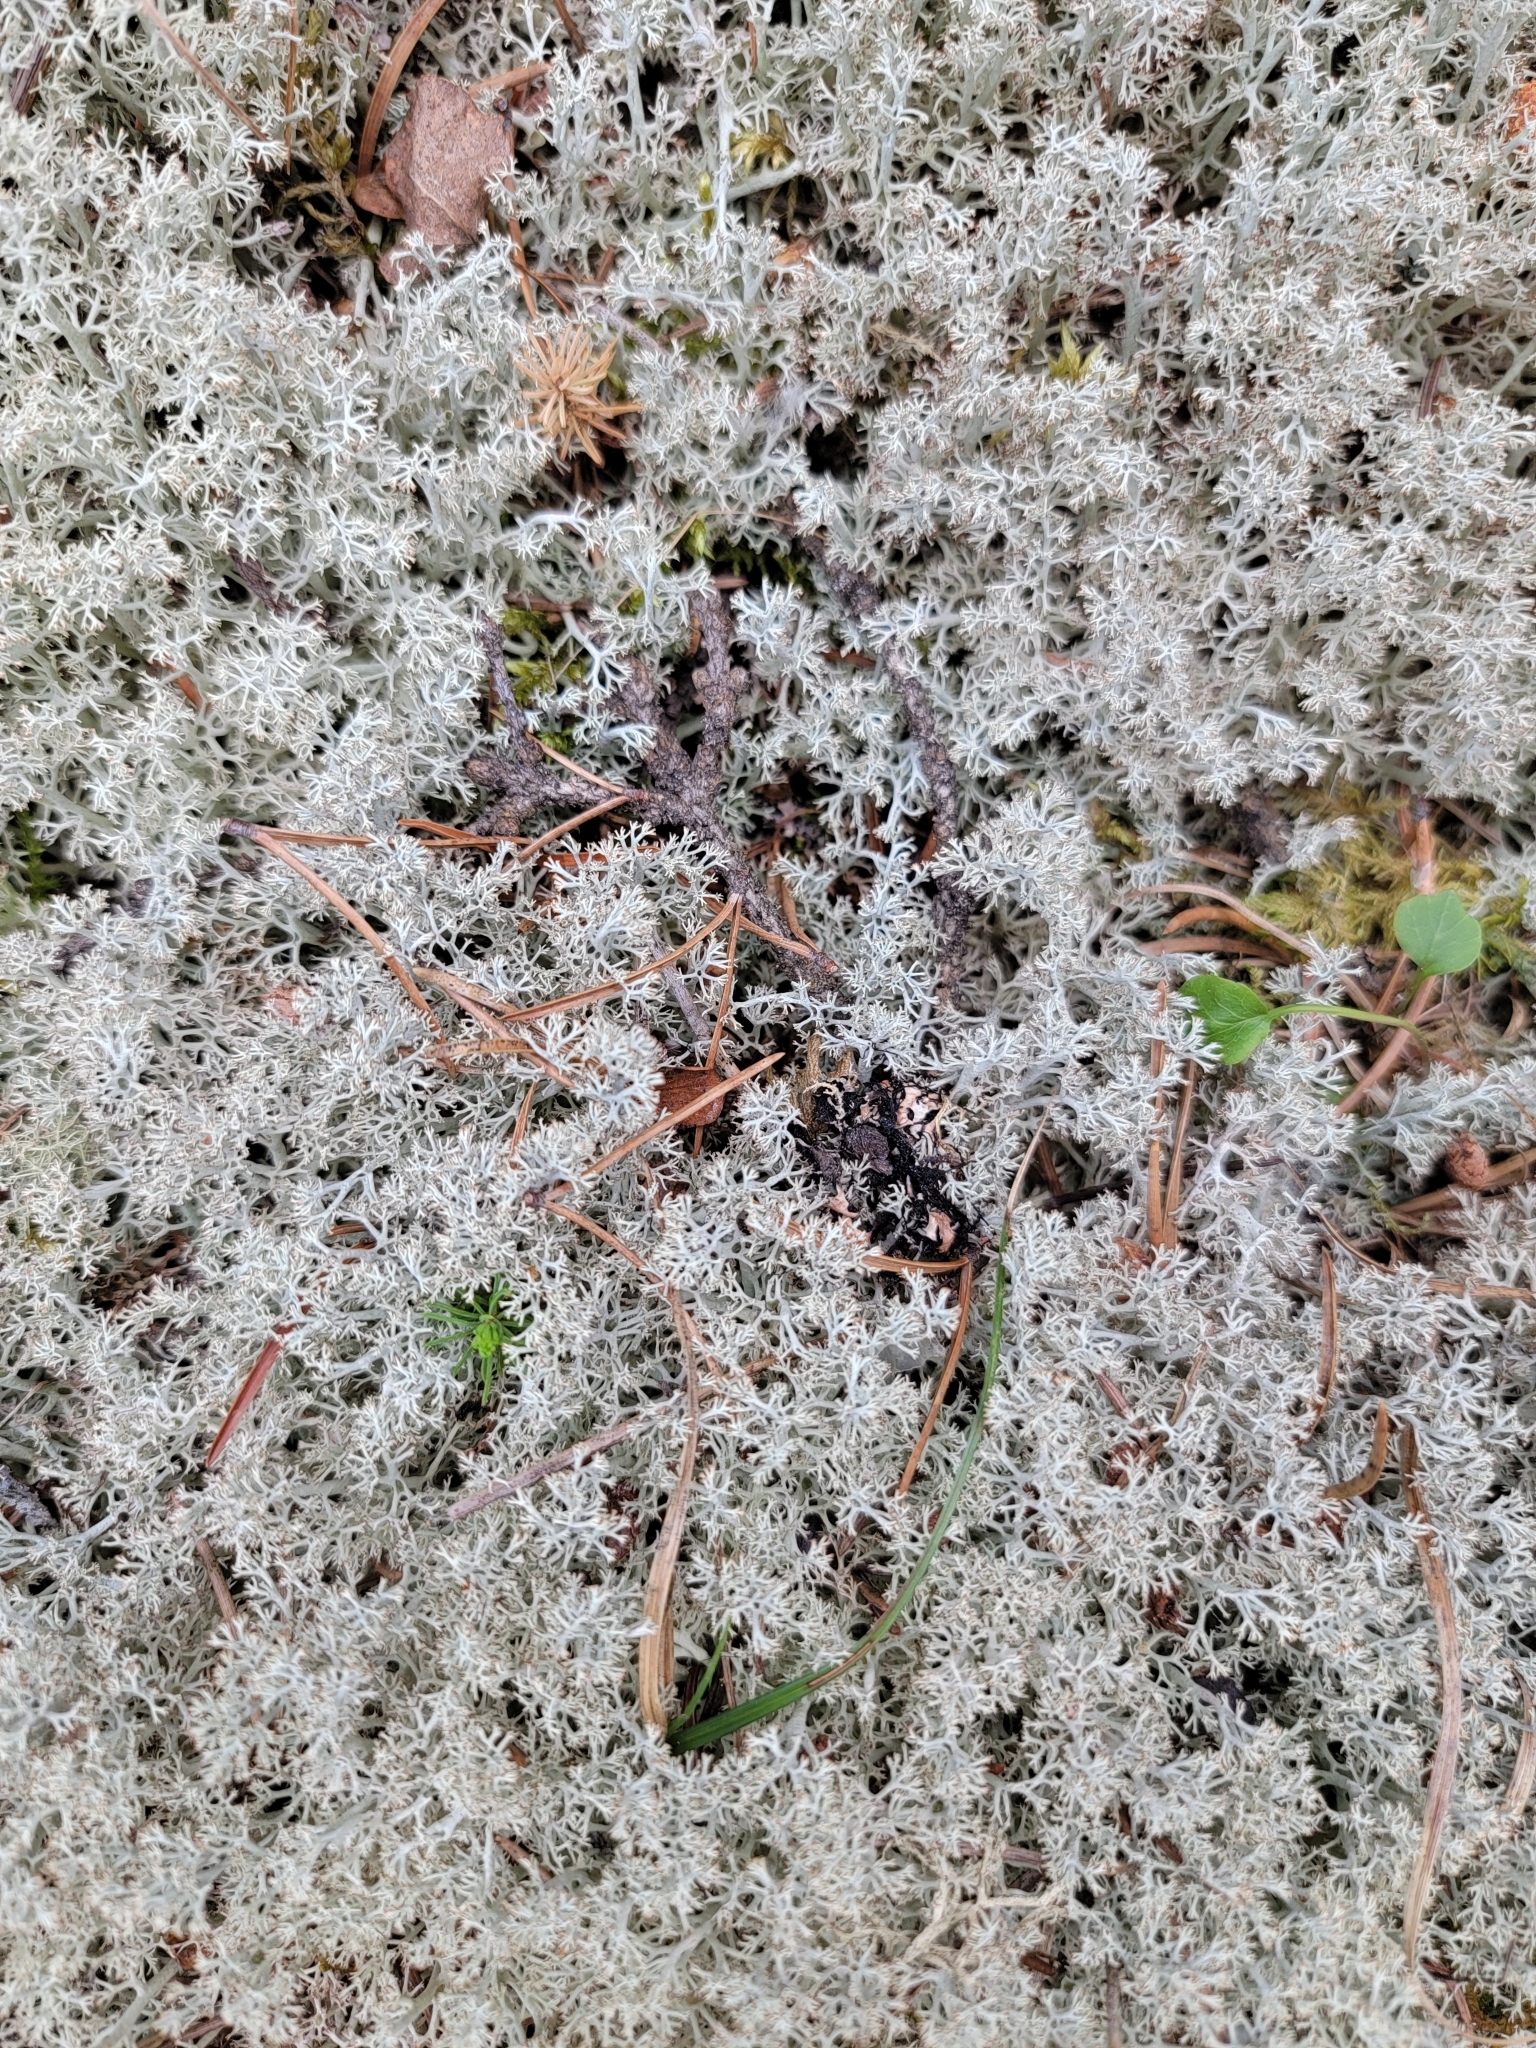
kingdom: Fungi
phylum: Ascomycota
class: Lecanoromycetes
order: Lecanorales
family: Cladoniaceae
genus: Cladonia
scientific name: Cladonia rangiferina
